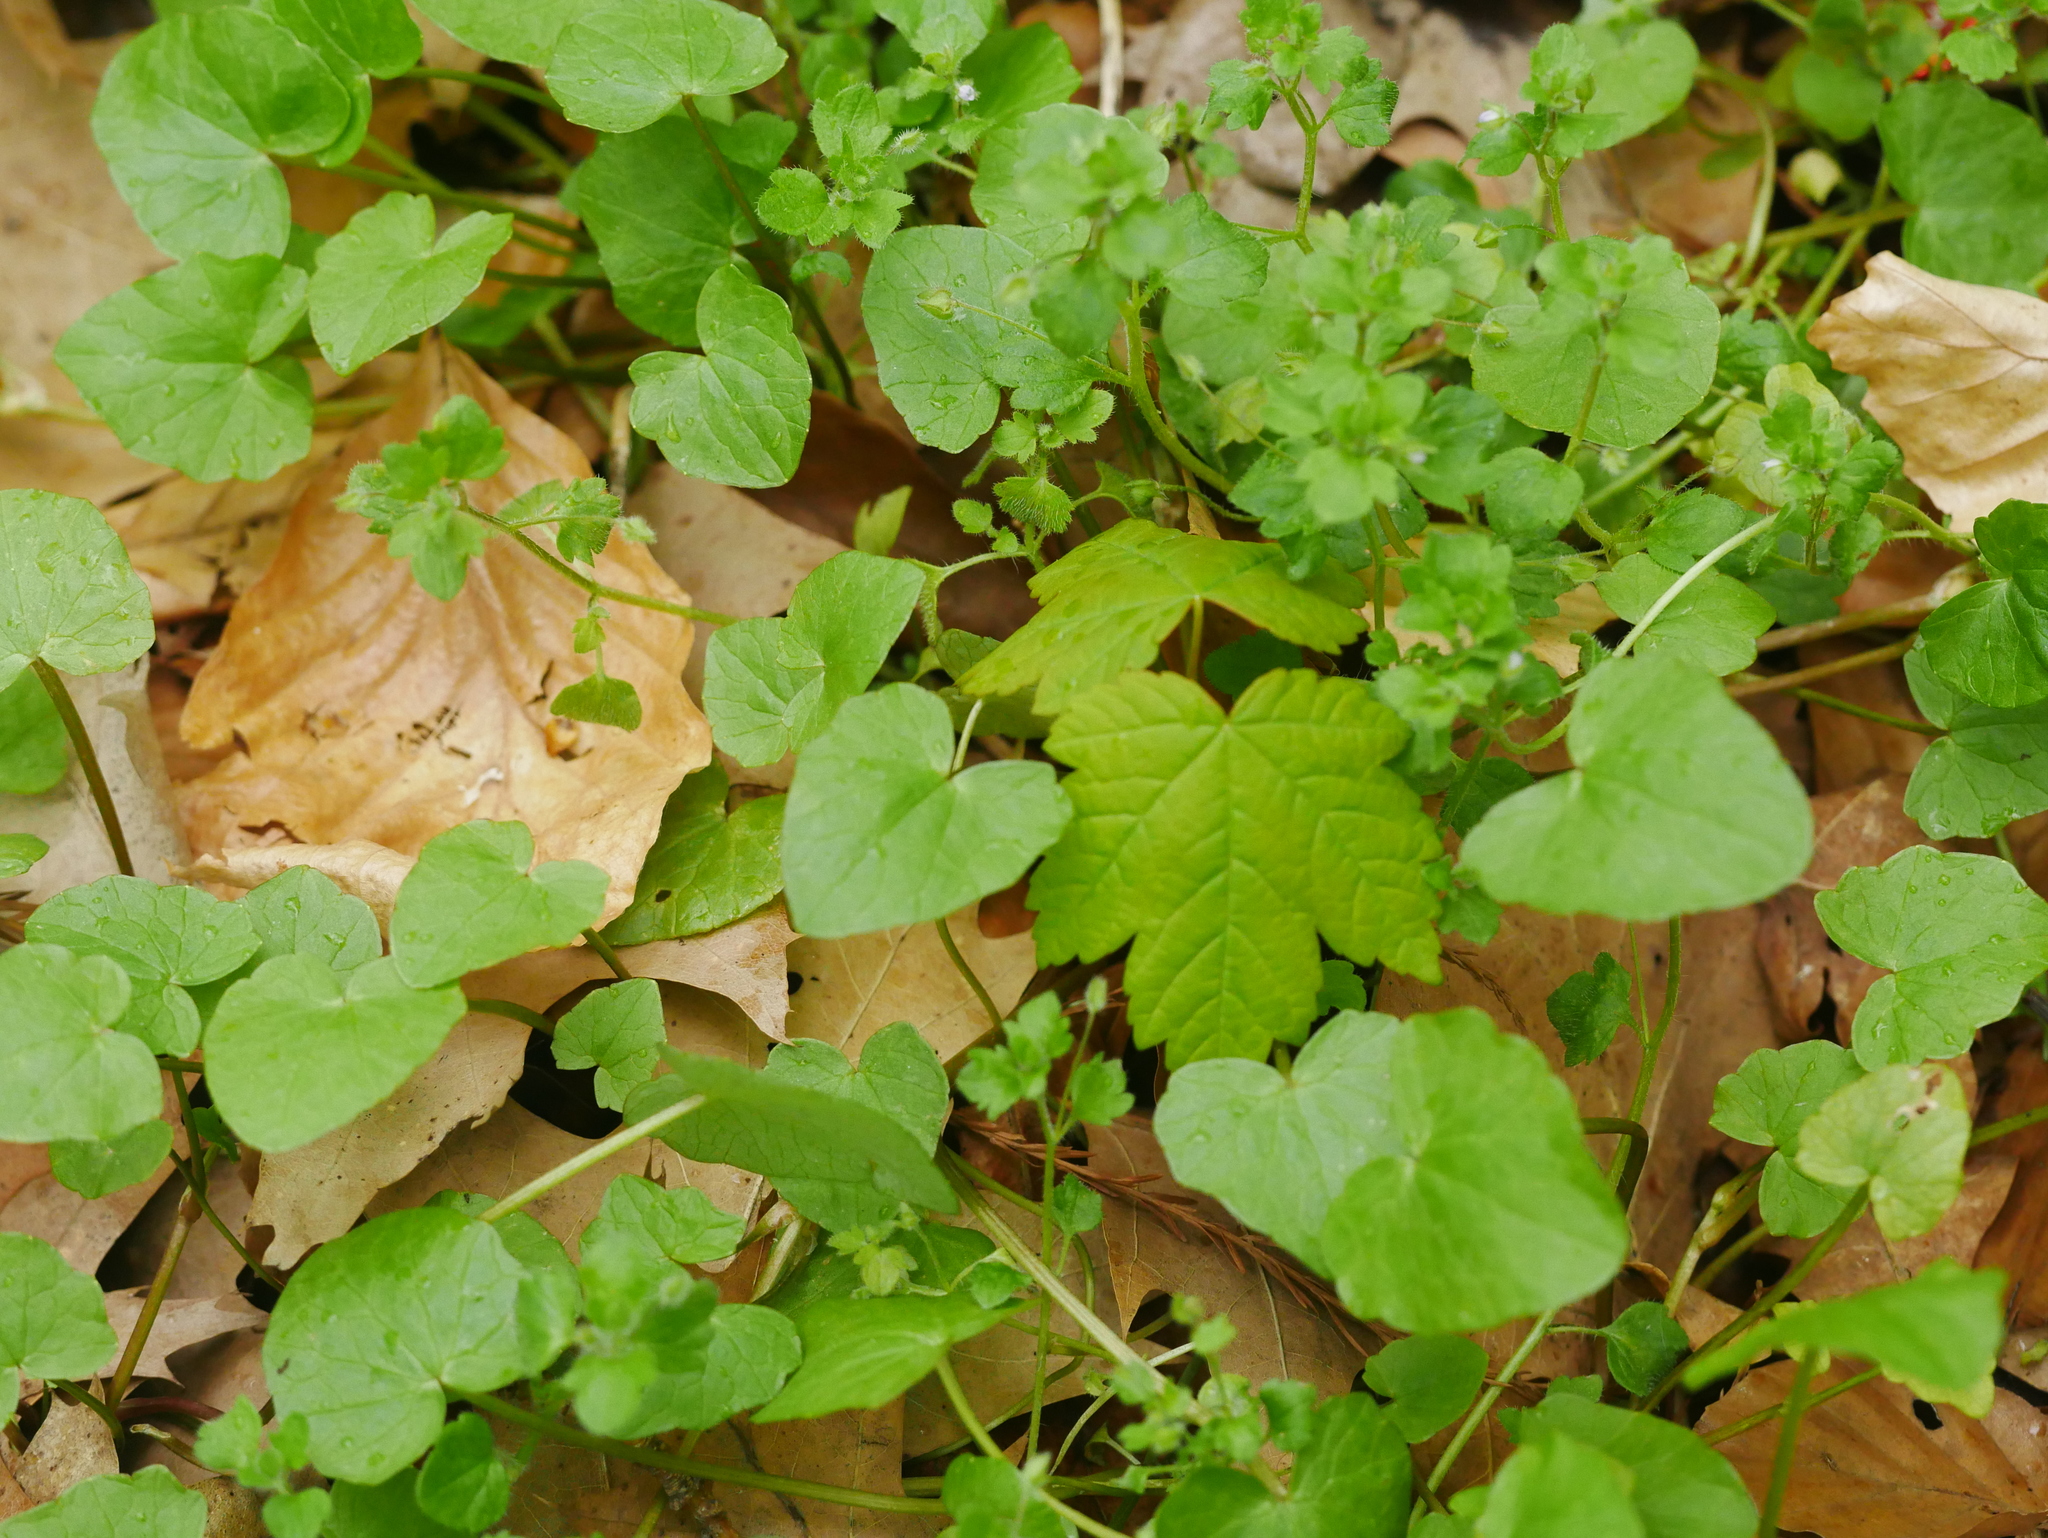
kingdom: Plantae
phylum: Tracheophyta
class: Magnoliopsida
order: Sapindales
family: Sapindaceae
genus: Acer
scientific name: Acer pseudoplatanus
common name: Sycamore
